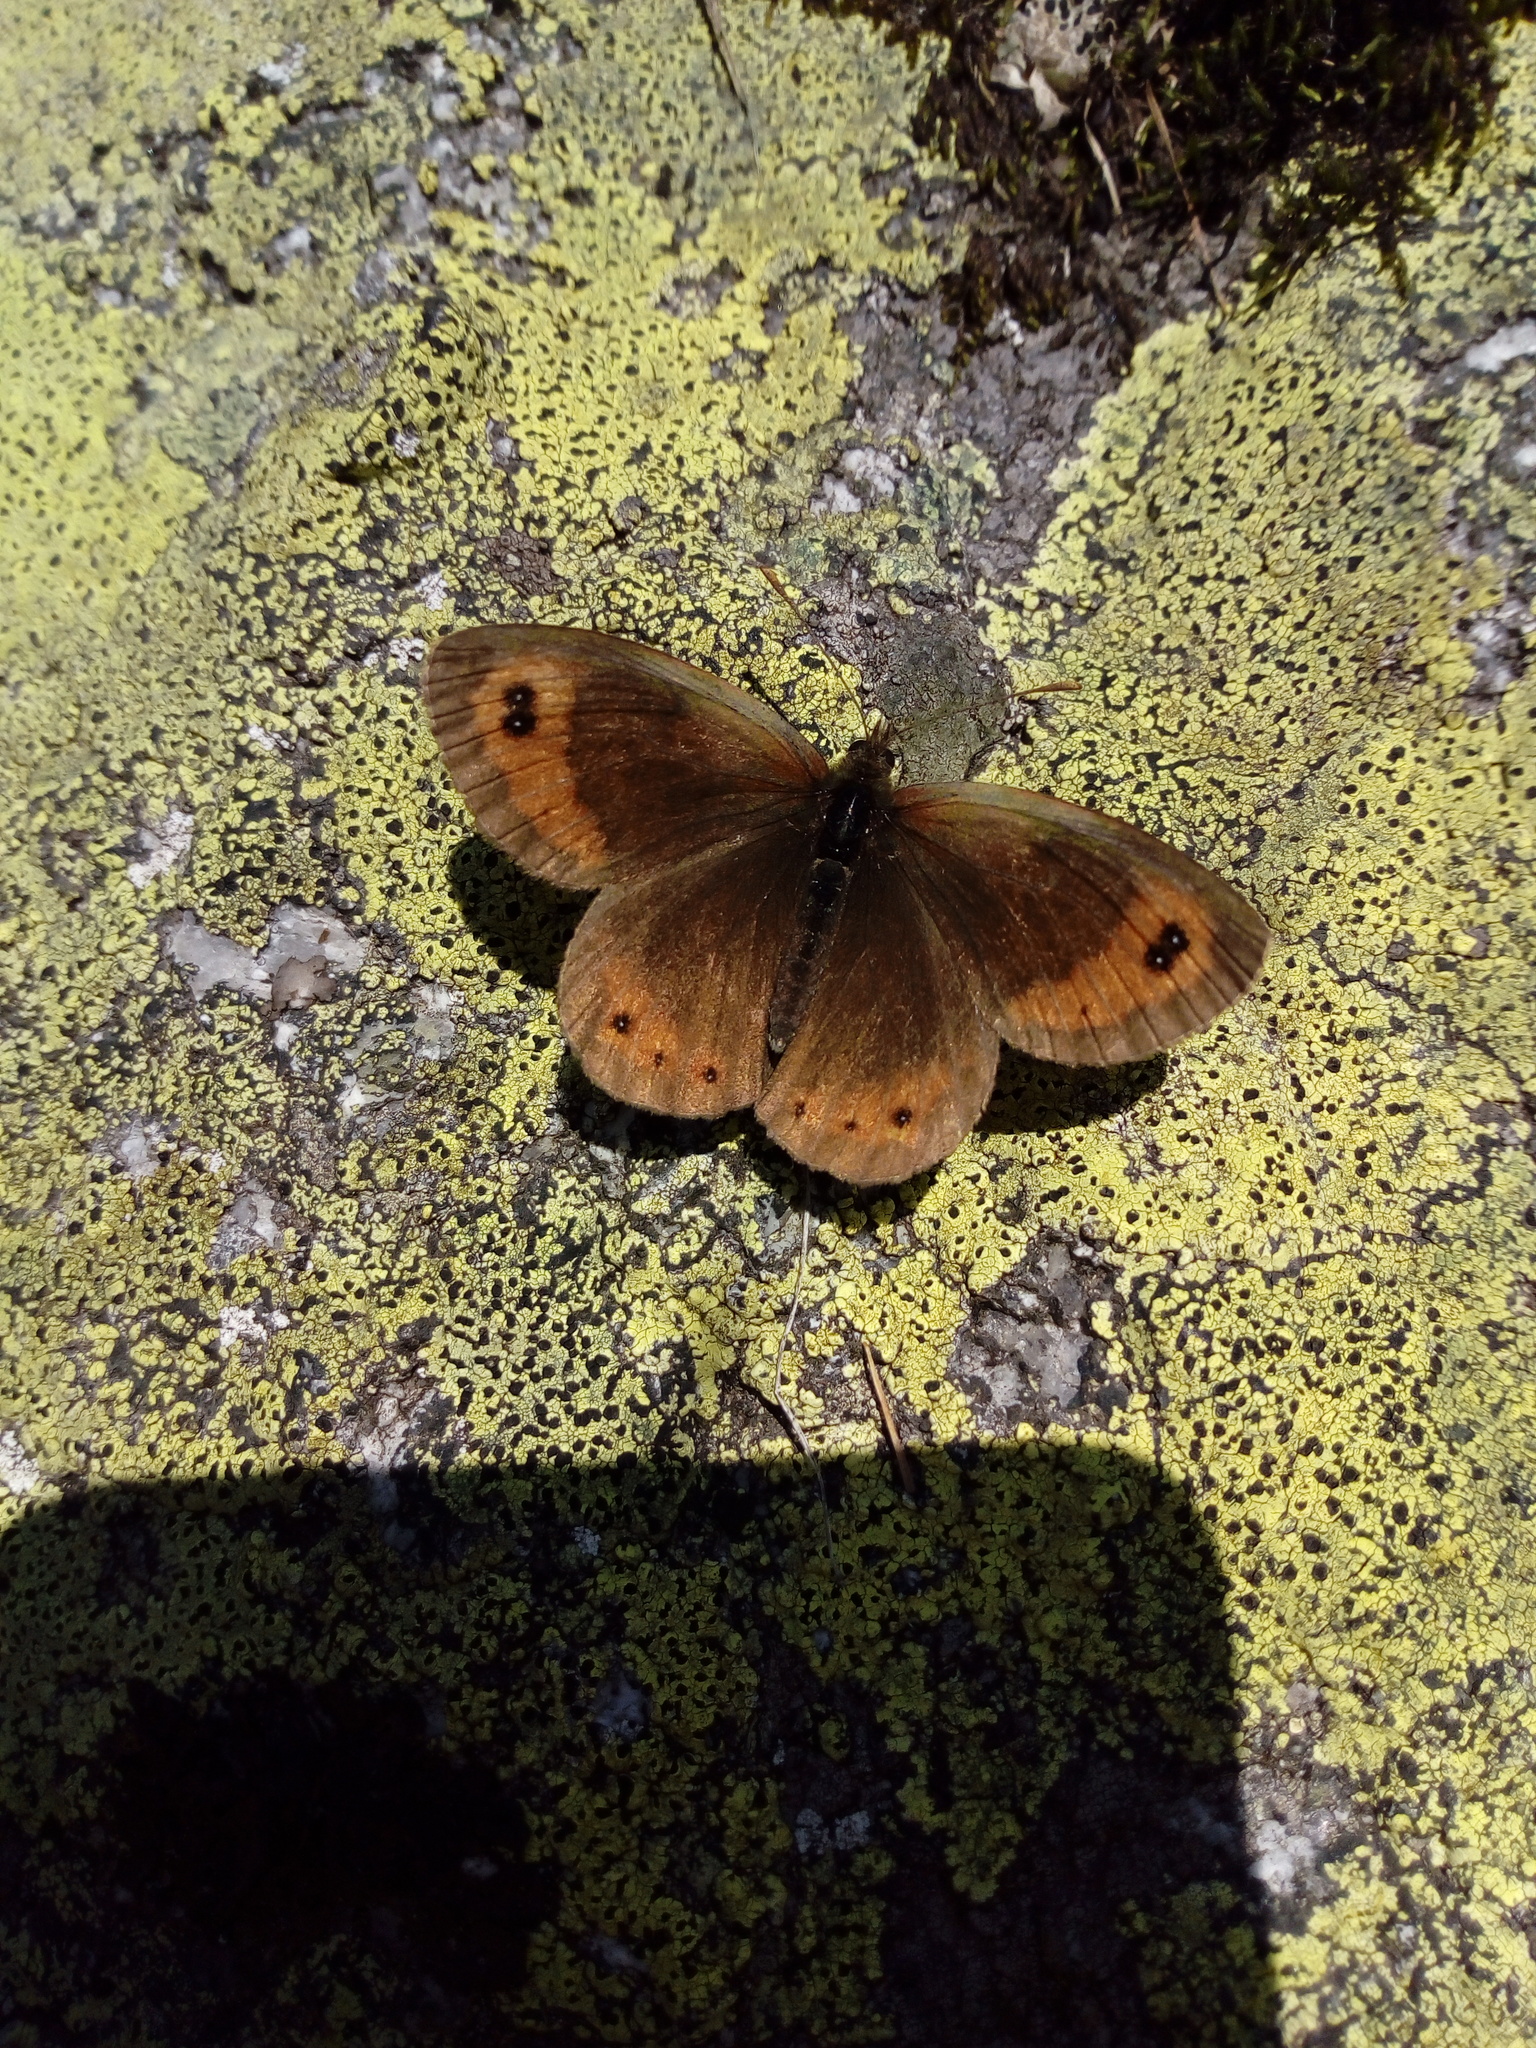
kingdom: Animalia
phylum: Arthropoda
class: Insecta
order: Lepidoptera
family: Nymphalidae
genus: Erebia
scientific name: Erebia montanus
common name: Marbled ringlet
